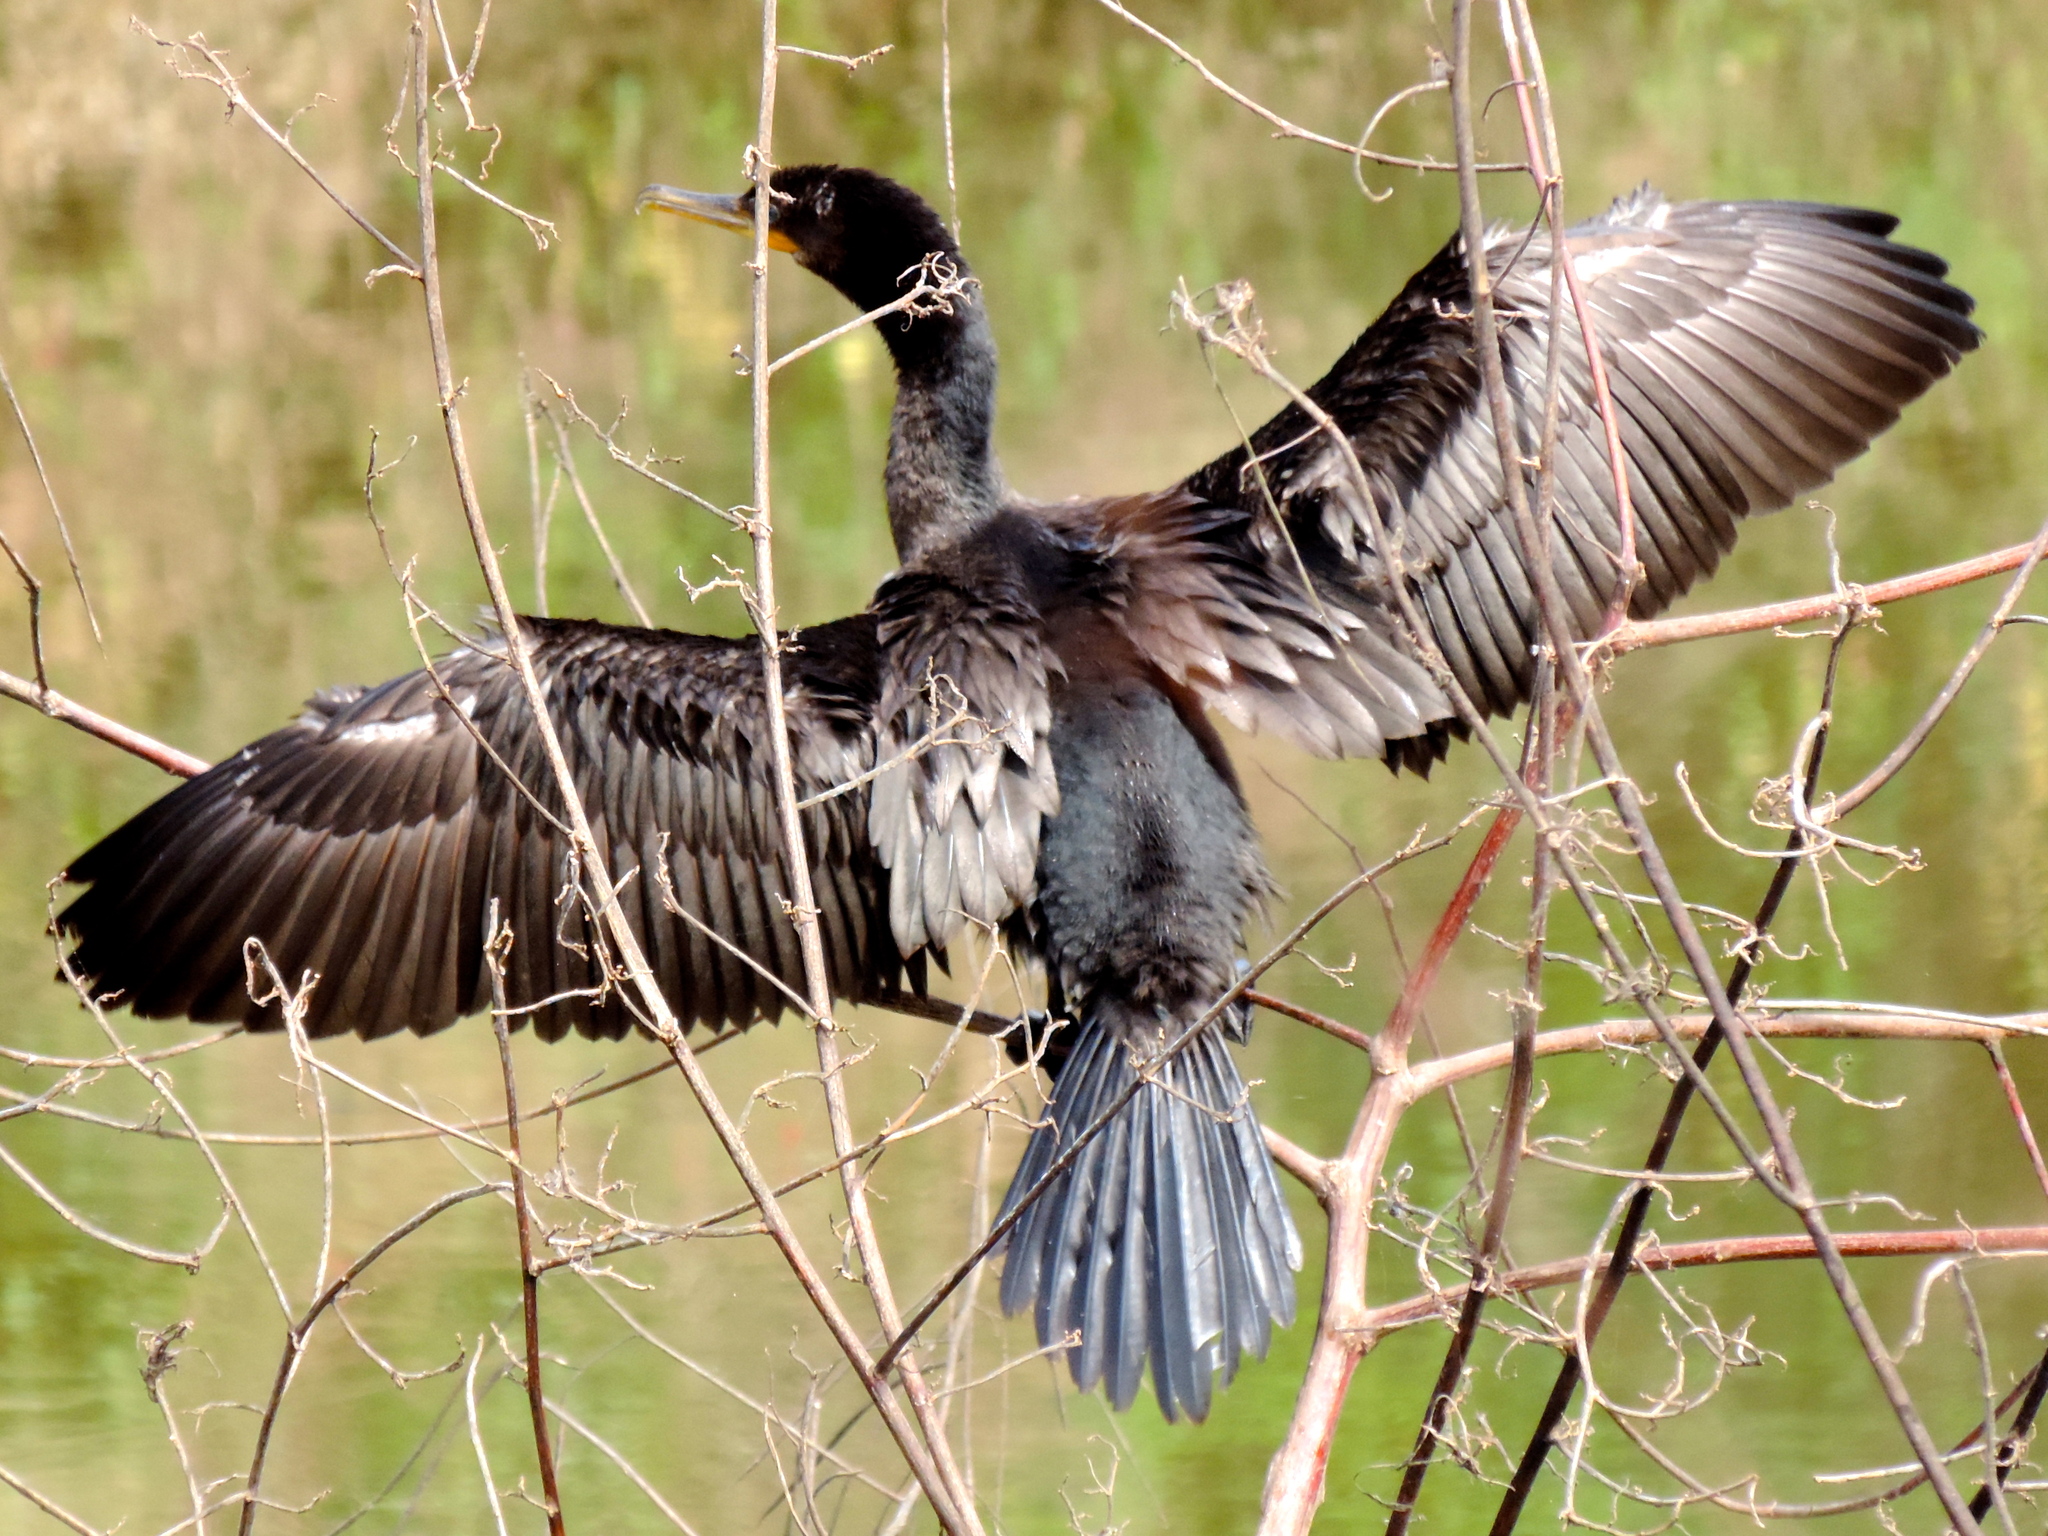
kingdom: Animalia
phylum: Chordata
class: Aves
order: Suliformes
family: Phalacrocoracidae
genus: Phalacrocorax
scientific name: Phalacrocorax brasilianus
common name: Neotropic cormorant
